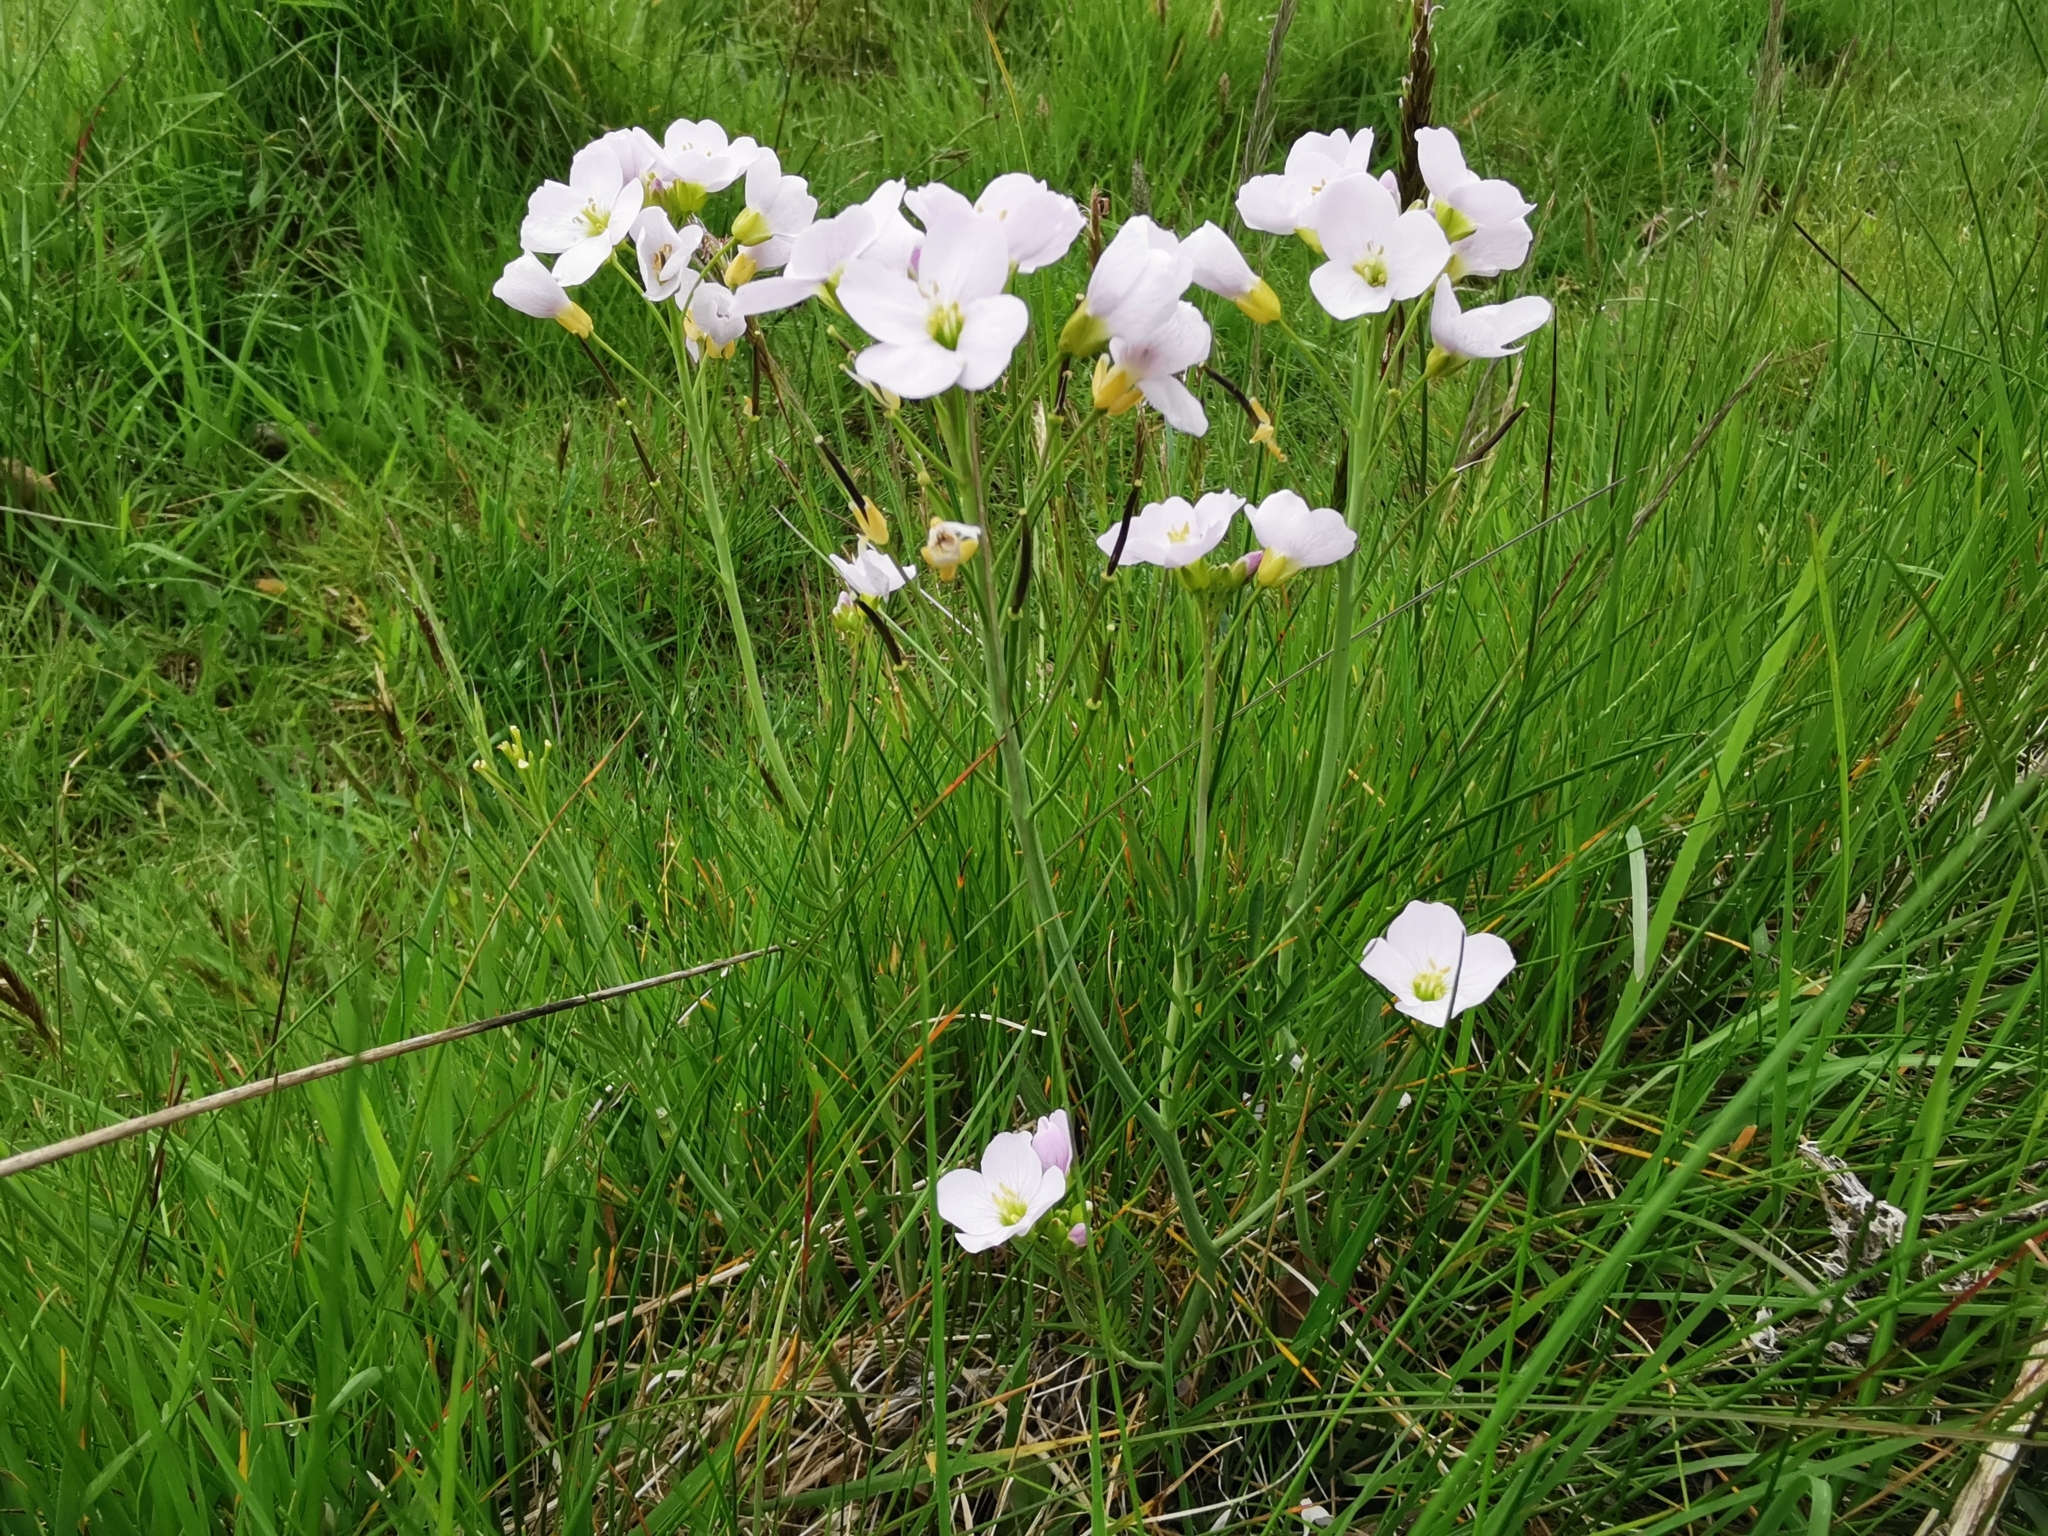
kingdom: Plantae
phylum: Tracheophyta
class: Magnoliopsida
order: Brassicales
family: Brassicaceae
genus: Cardamine
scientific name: Cardamine pratensis
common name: Cuckoo flower
